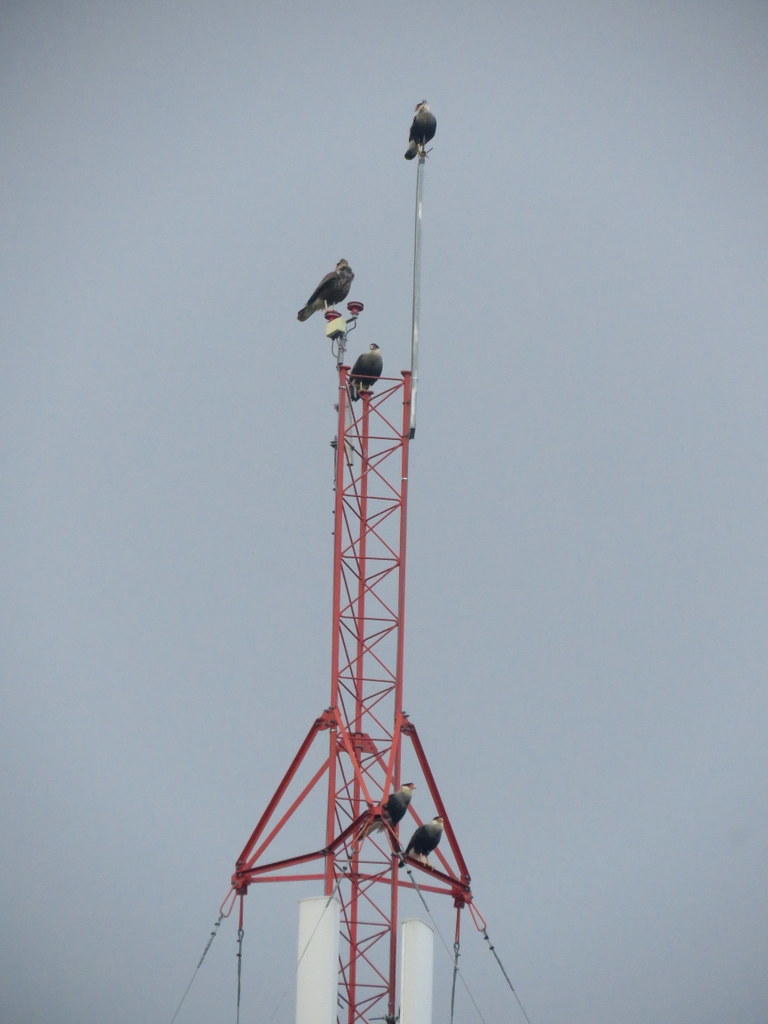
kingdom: Animalia
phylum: Chordata
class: Aves
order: Falconiformes
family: Falconidae
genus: Caracara
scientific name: Caracara plancus
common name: Southern caracara
